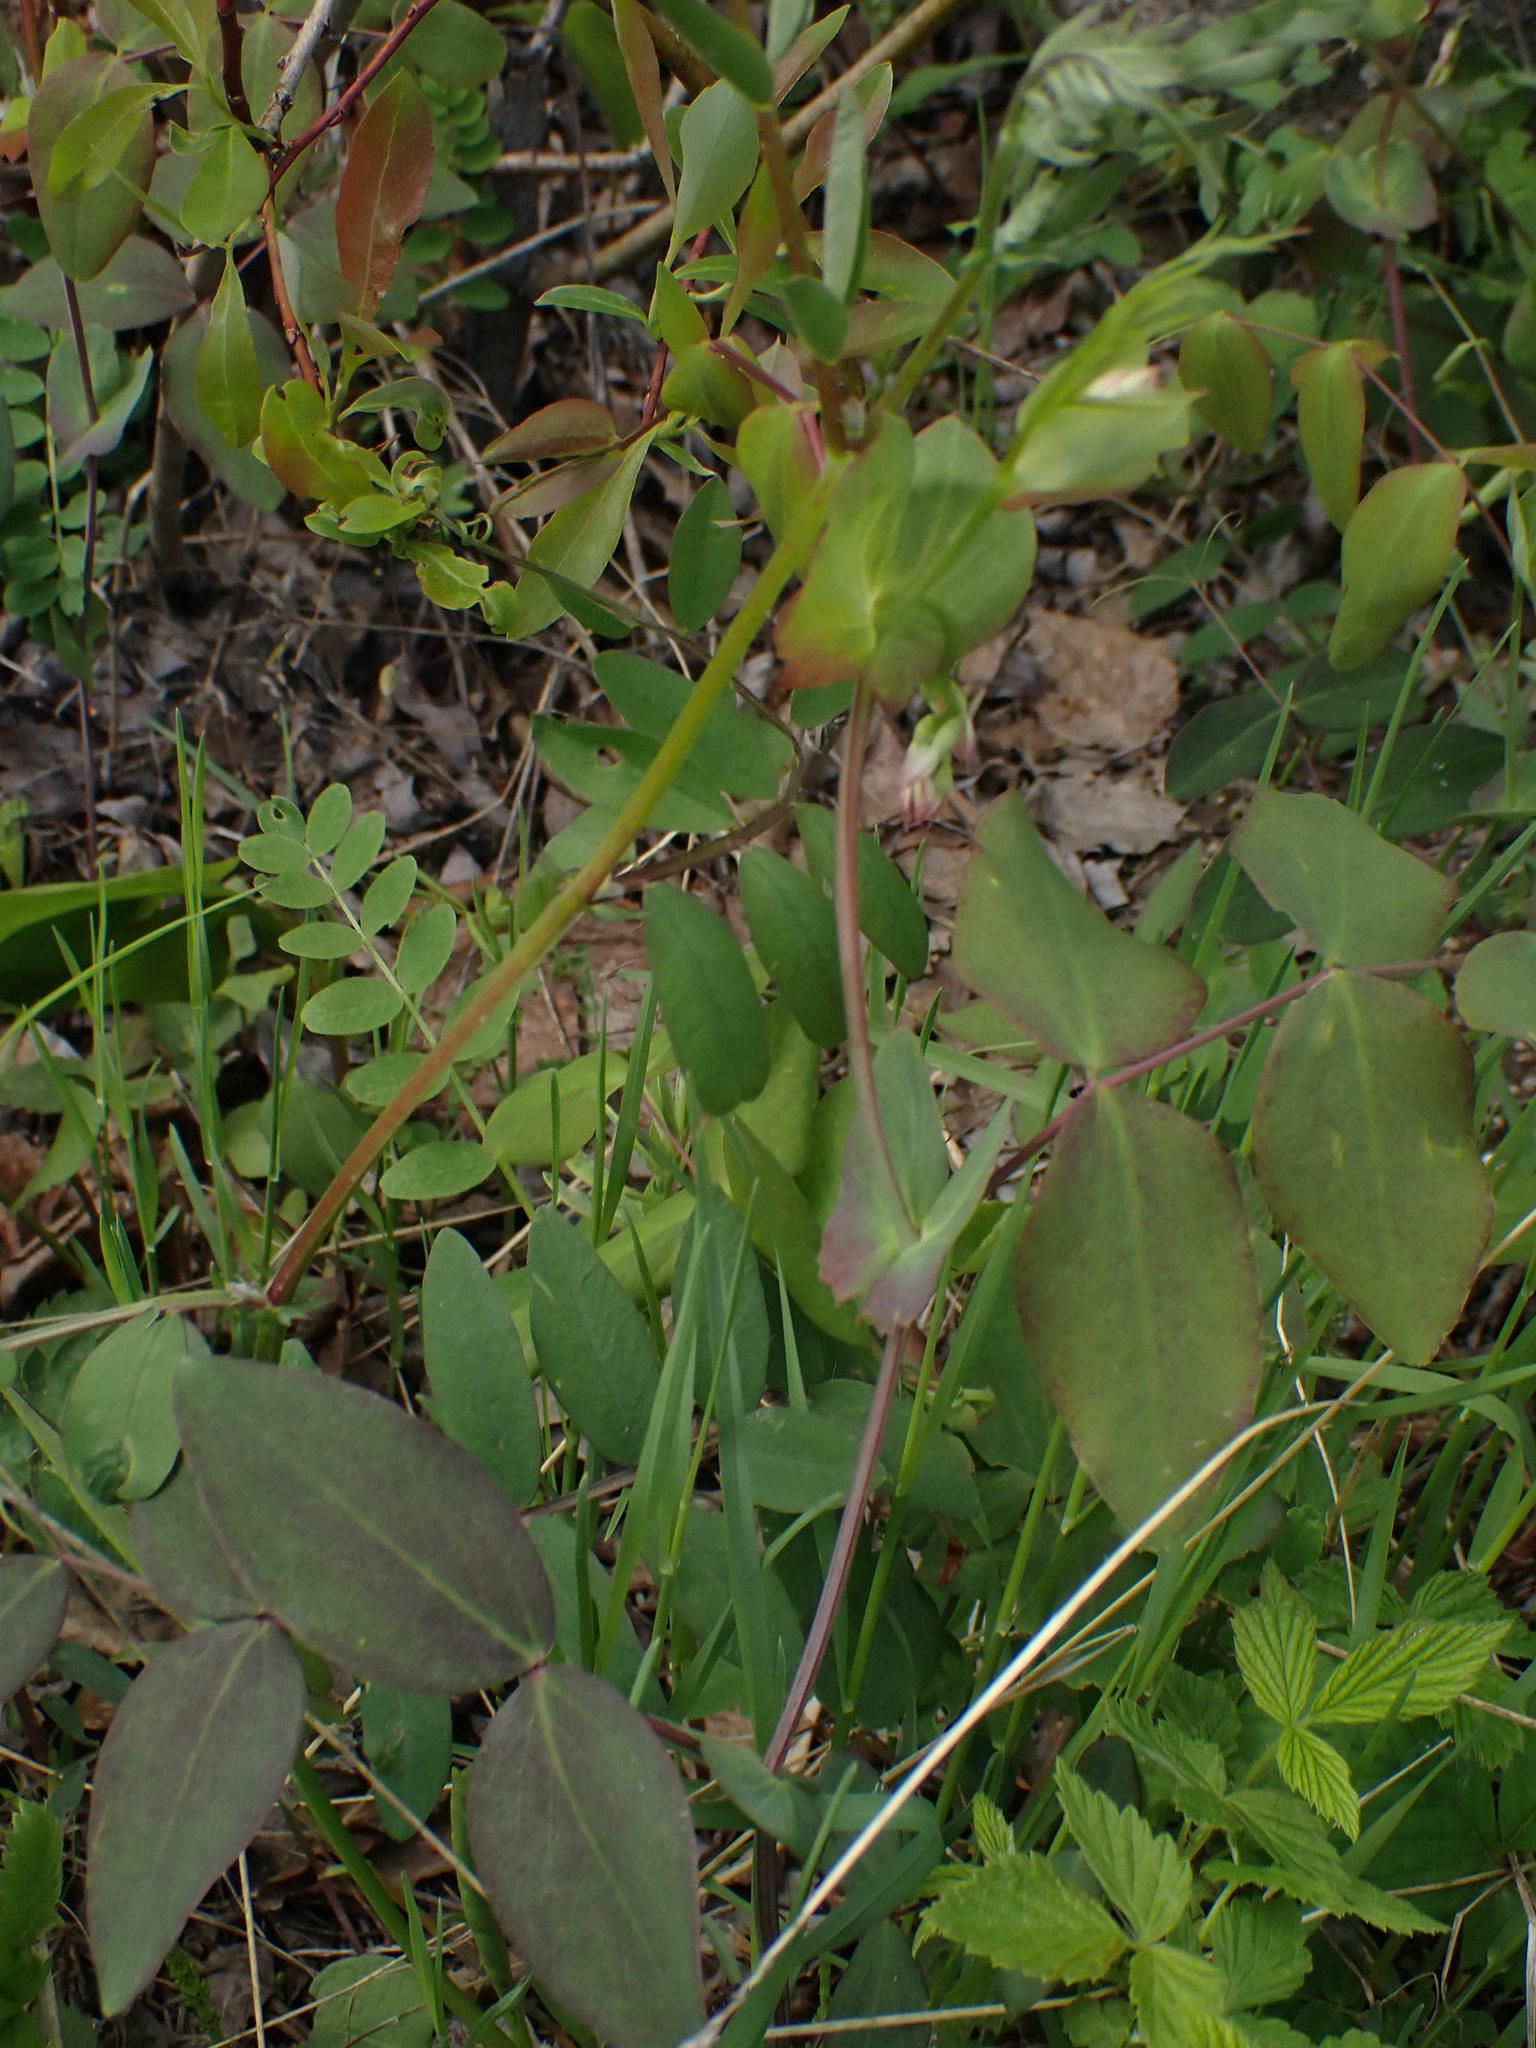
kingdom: Plantae
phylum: Tracheophyta
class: Magnoliopsida
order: Fabales
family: Fabaceae
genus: Lathyrus
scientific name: Lathyrus ochroleucus
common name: Pale vetchling
